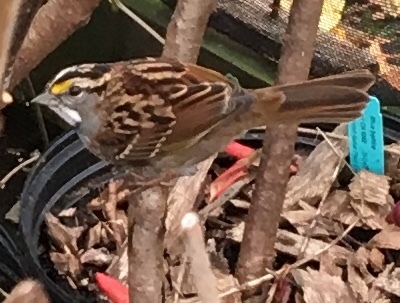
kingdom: Animalia
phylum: Chordata
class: Aves
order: Passeriformes
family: Passerellidae
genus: Zonotrichia
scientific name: Zonotrichia albicollis
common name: White-throated sparrow
